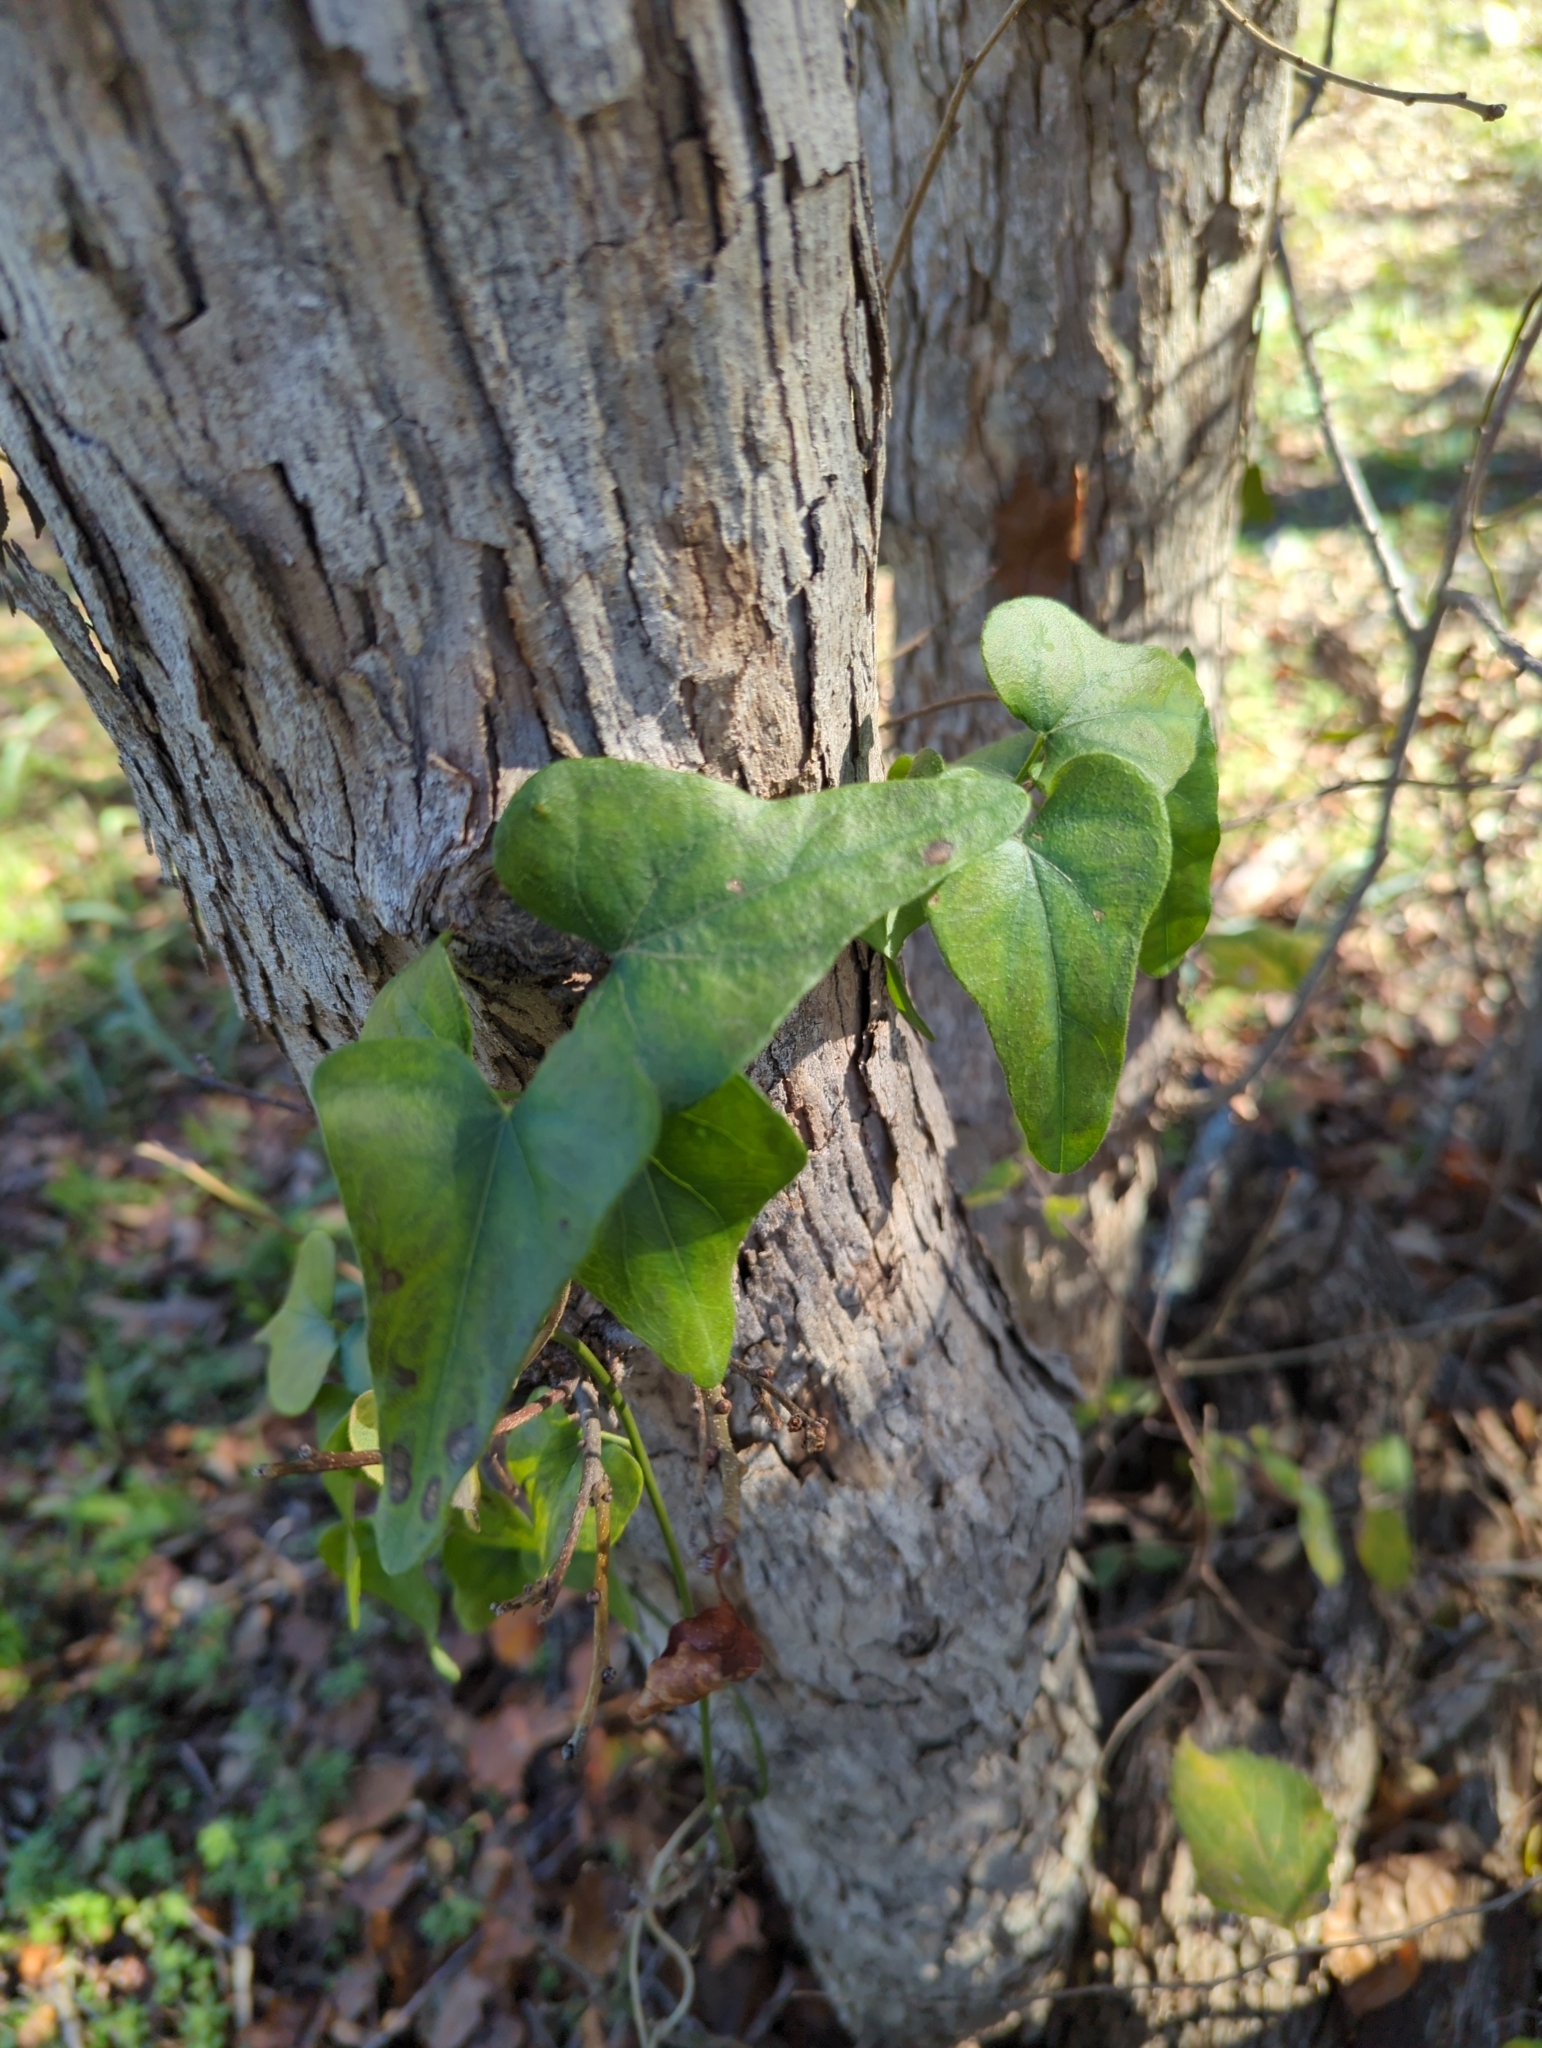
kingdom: Plantae
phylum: Tracheophyta
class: Magnoliopsida
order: Ranunculales
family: Menispermaceae
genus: Cocculus
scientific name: Cocculus carolinus
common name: Carolina moonseed
